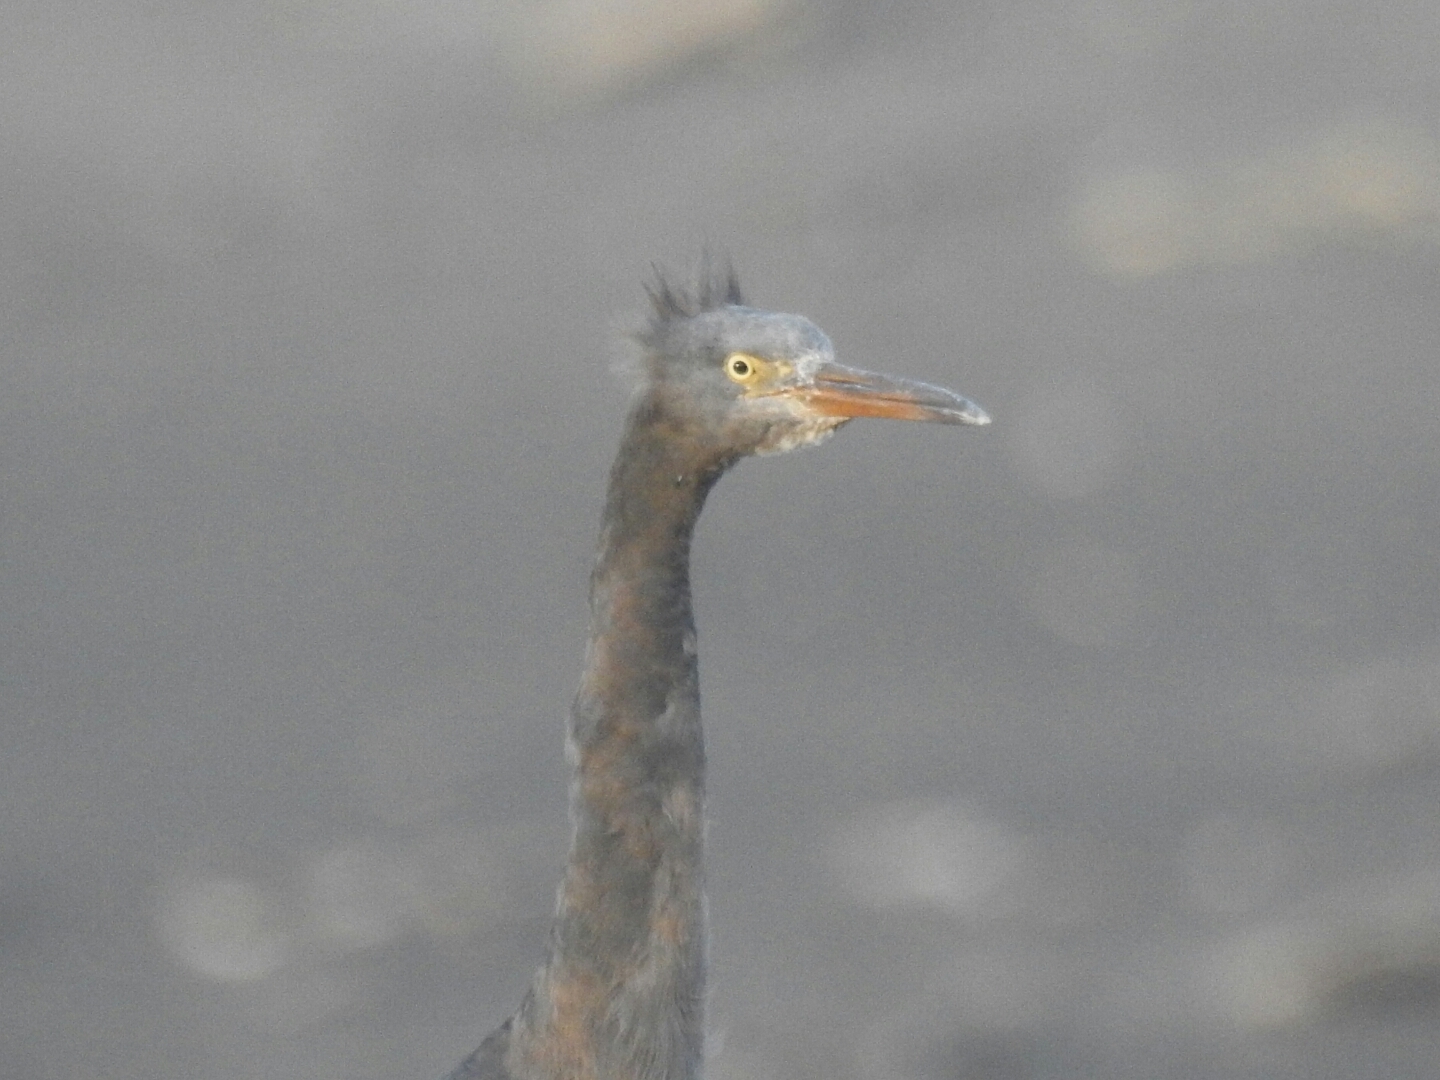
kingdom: Animalia
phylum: Chordata
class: Aves
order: Pelecaniformes
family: Ardeidae
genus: Egretta
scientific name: Egretta sacra
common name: Pacific reef heron
